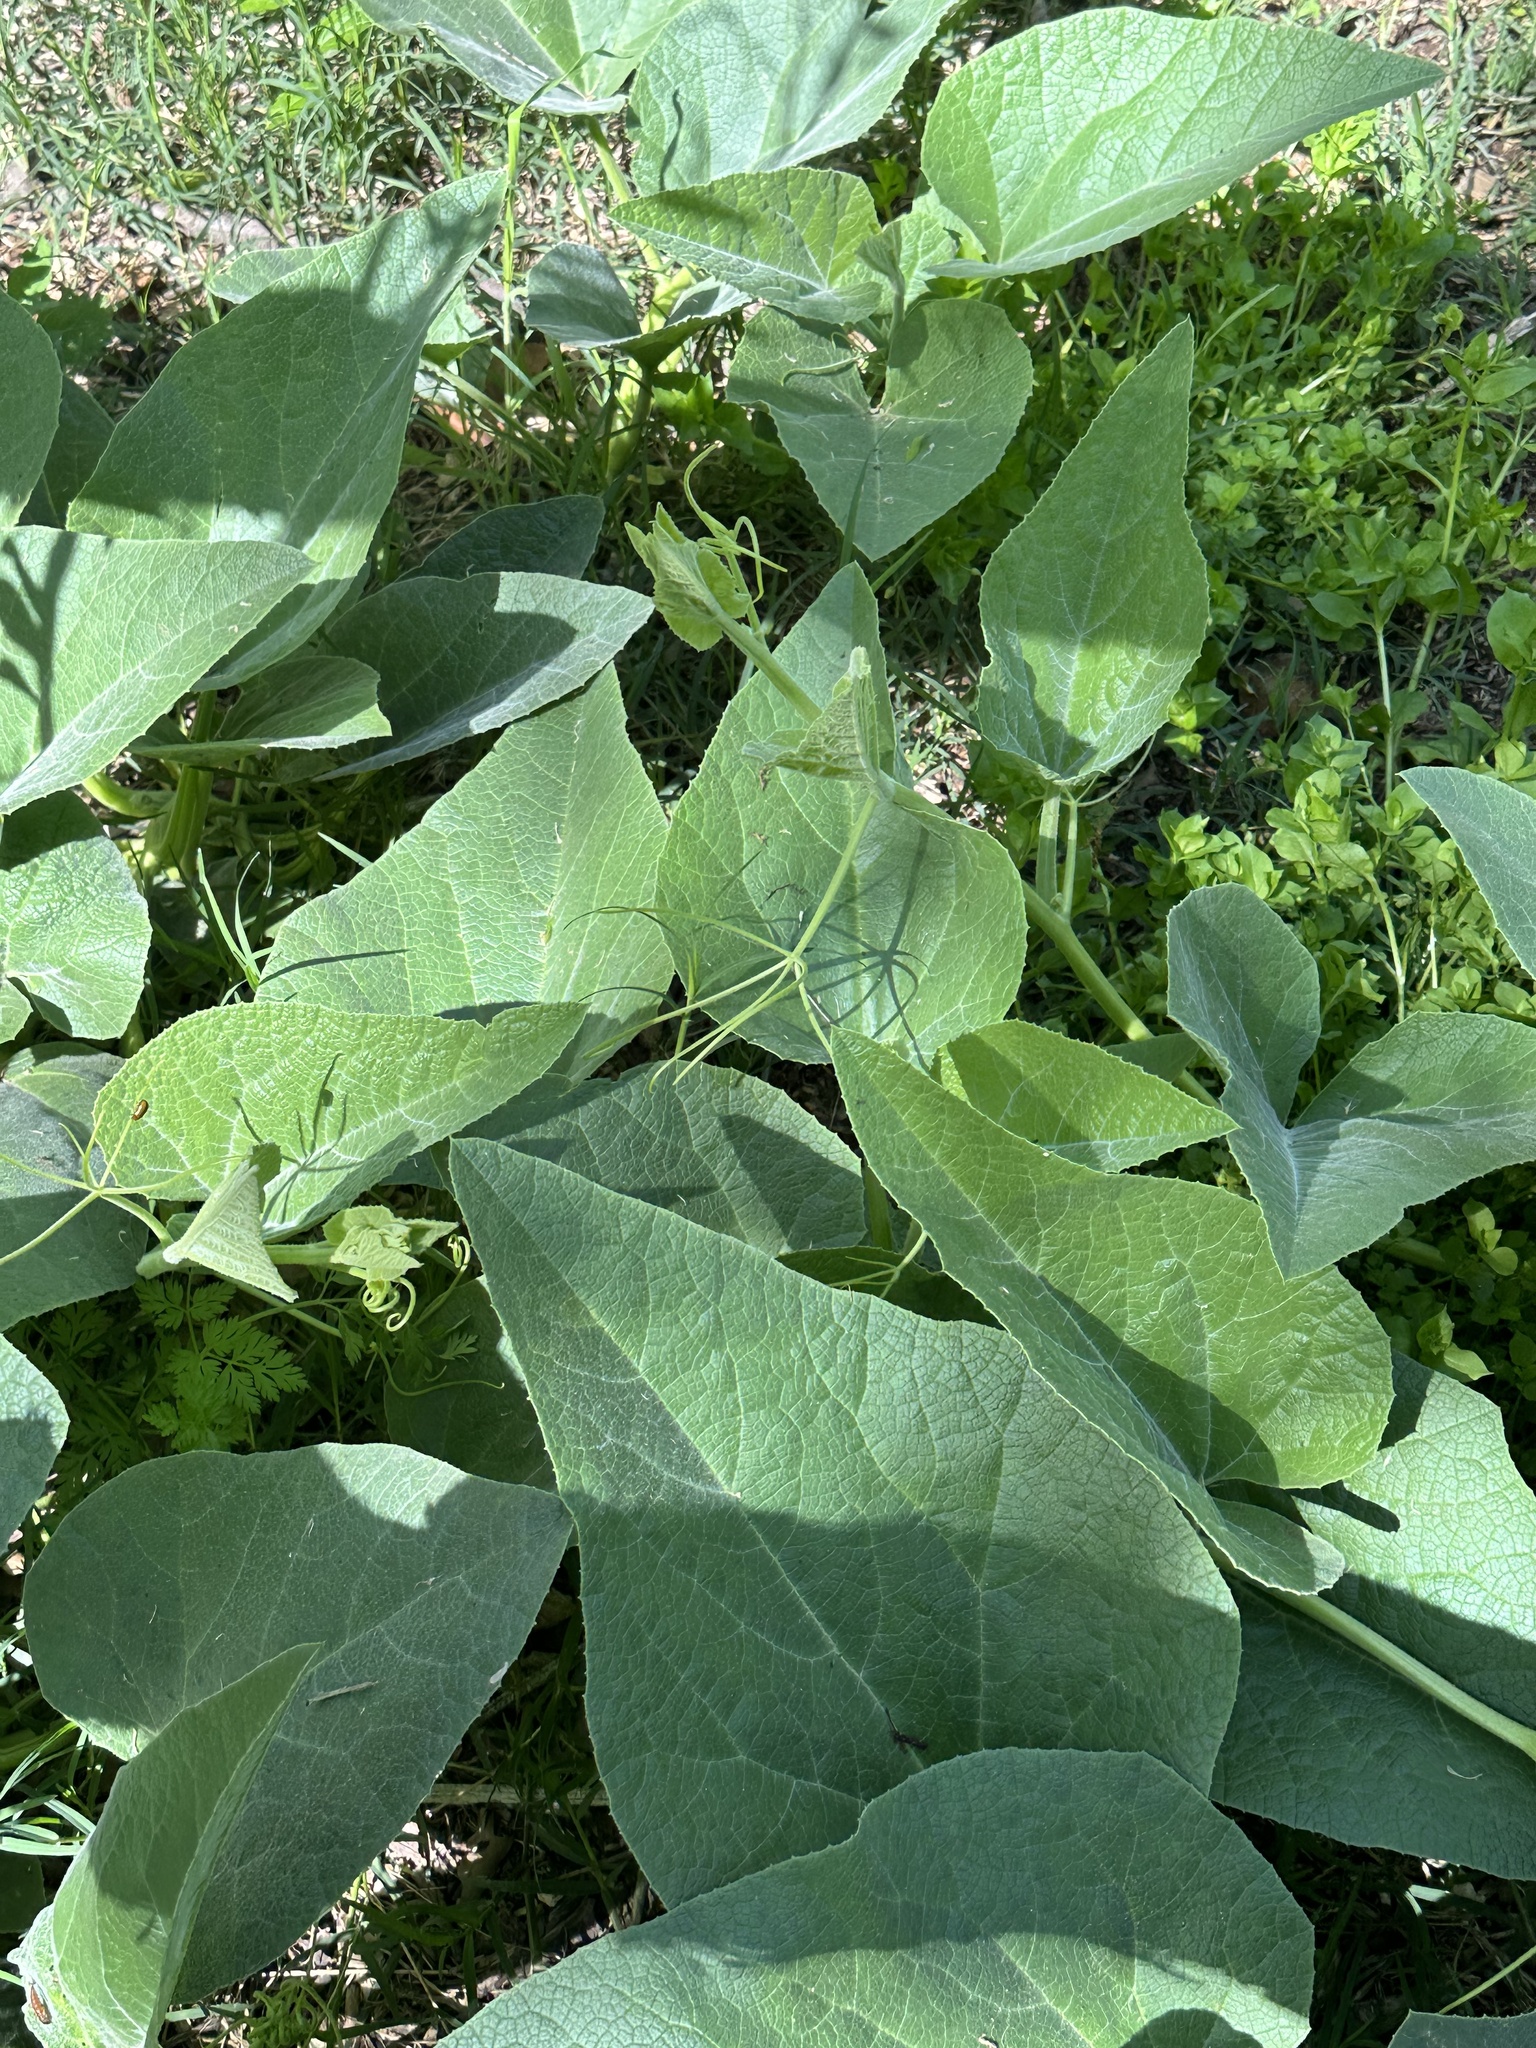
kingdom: Plantae
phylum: Tracheophyta
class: Magnoliopsida
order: Cucurbitales
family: Cucurbitaceae
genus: Cucurbita
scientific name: Cucurbita foetidissima
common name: Buffalo gourd
